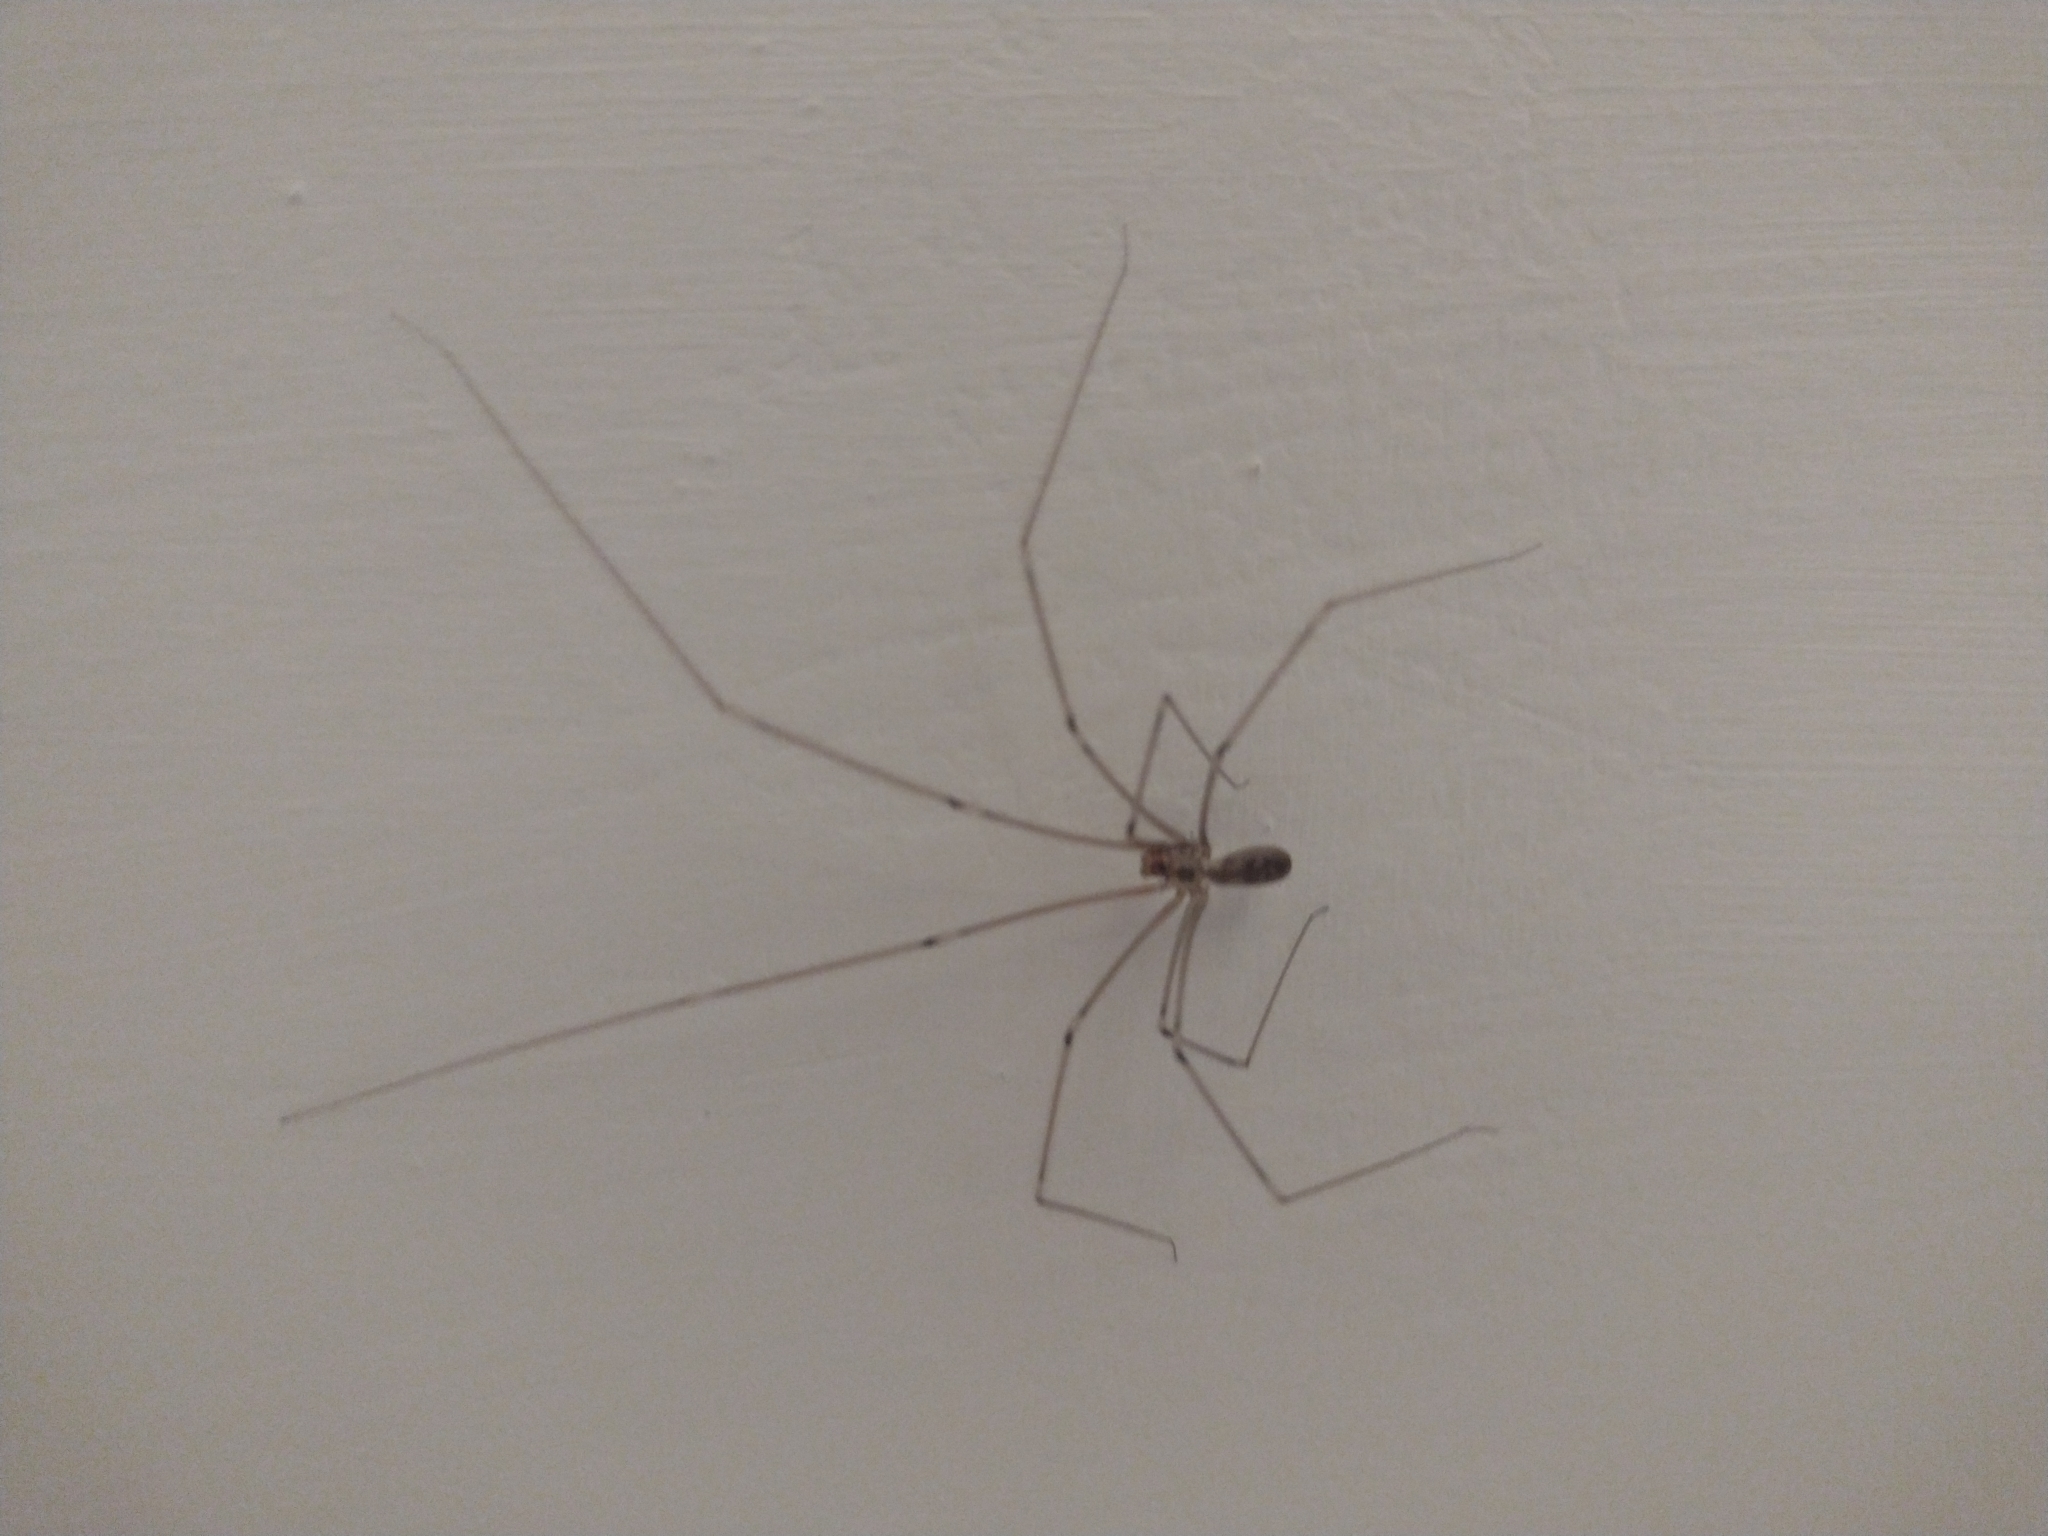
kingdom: Animalia
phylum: Arthropoda
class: Arachnida
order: Araneae
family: Pholcidae
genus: Pholcus
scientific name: Pholcus phalangioides
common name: Longbodied cellar spider
